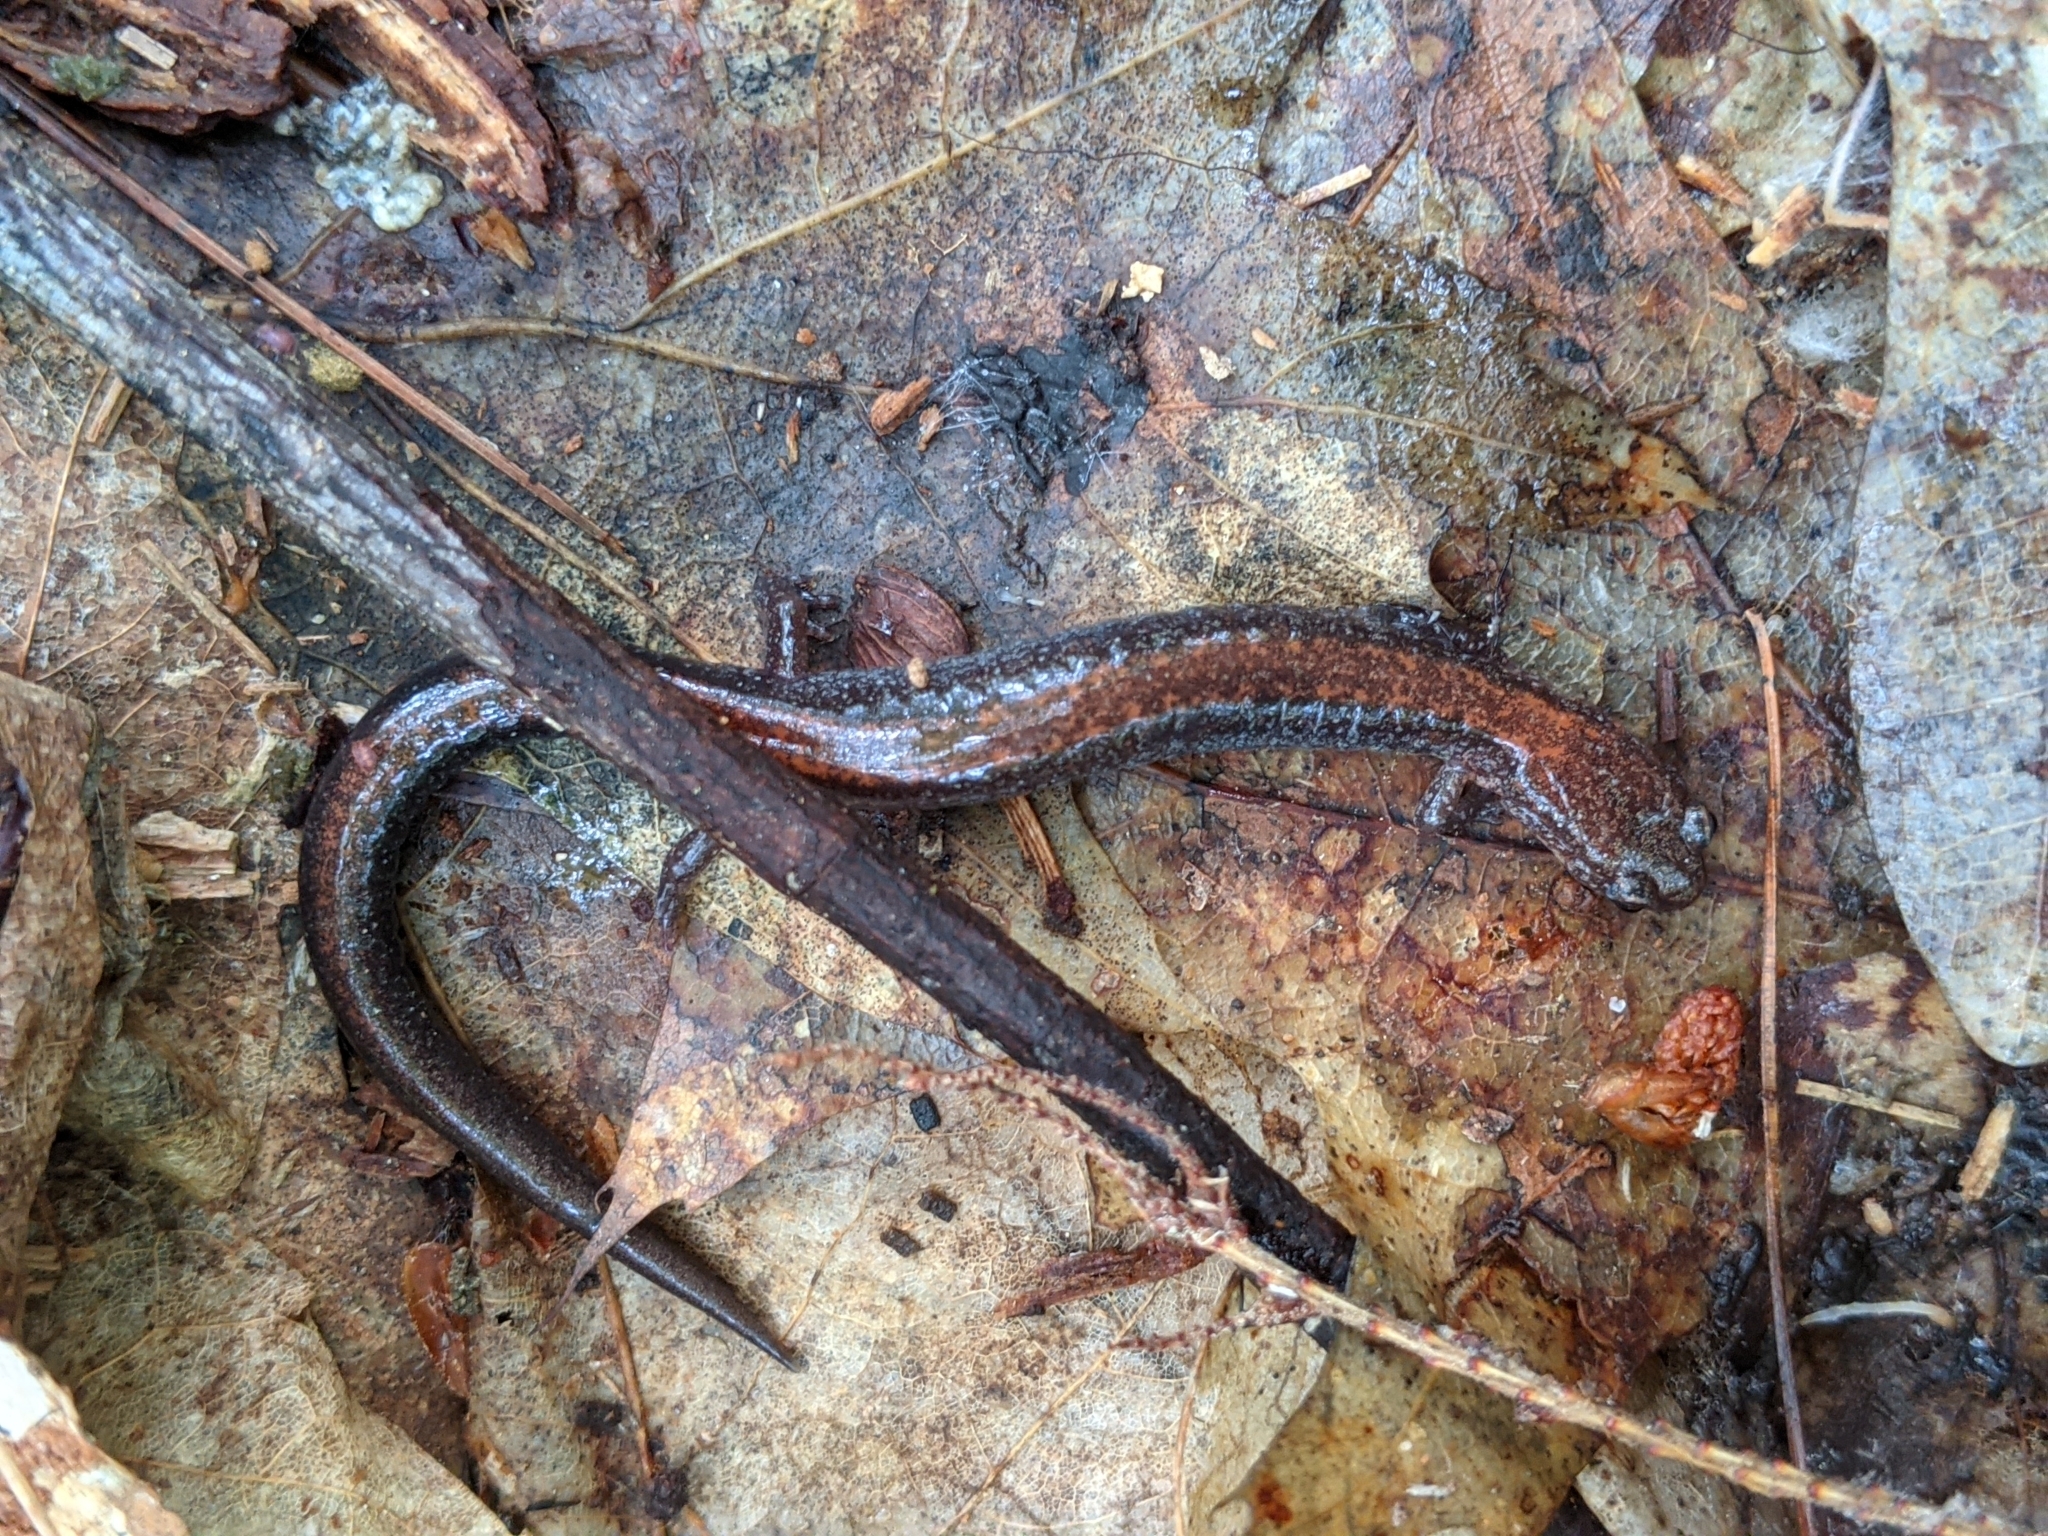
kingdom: Animalia
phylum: Chordata
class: Amphibia
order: Caudata
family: Plethodontidae
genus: Plethodon
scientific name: Plethodon cinereus
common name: Redback salamander
